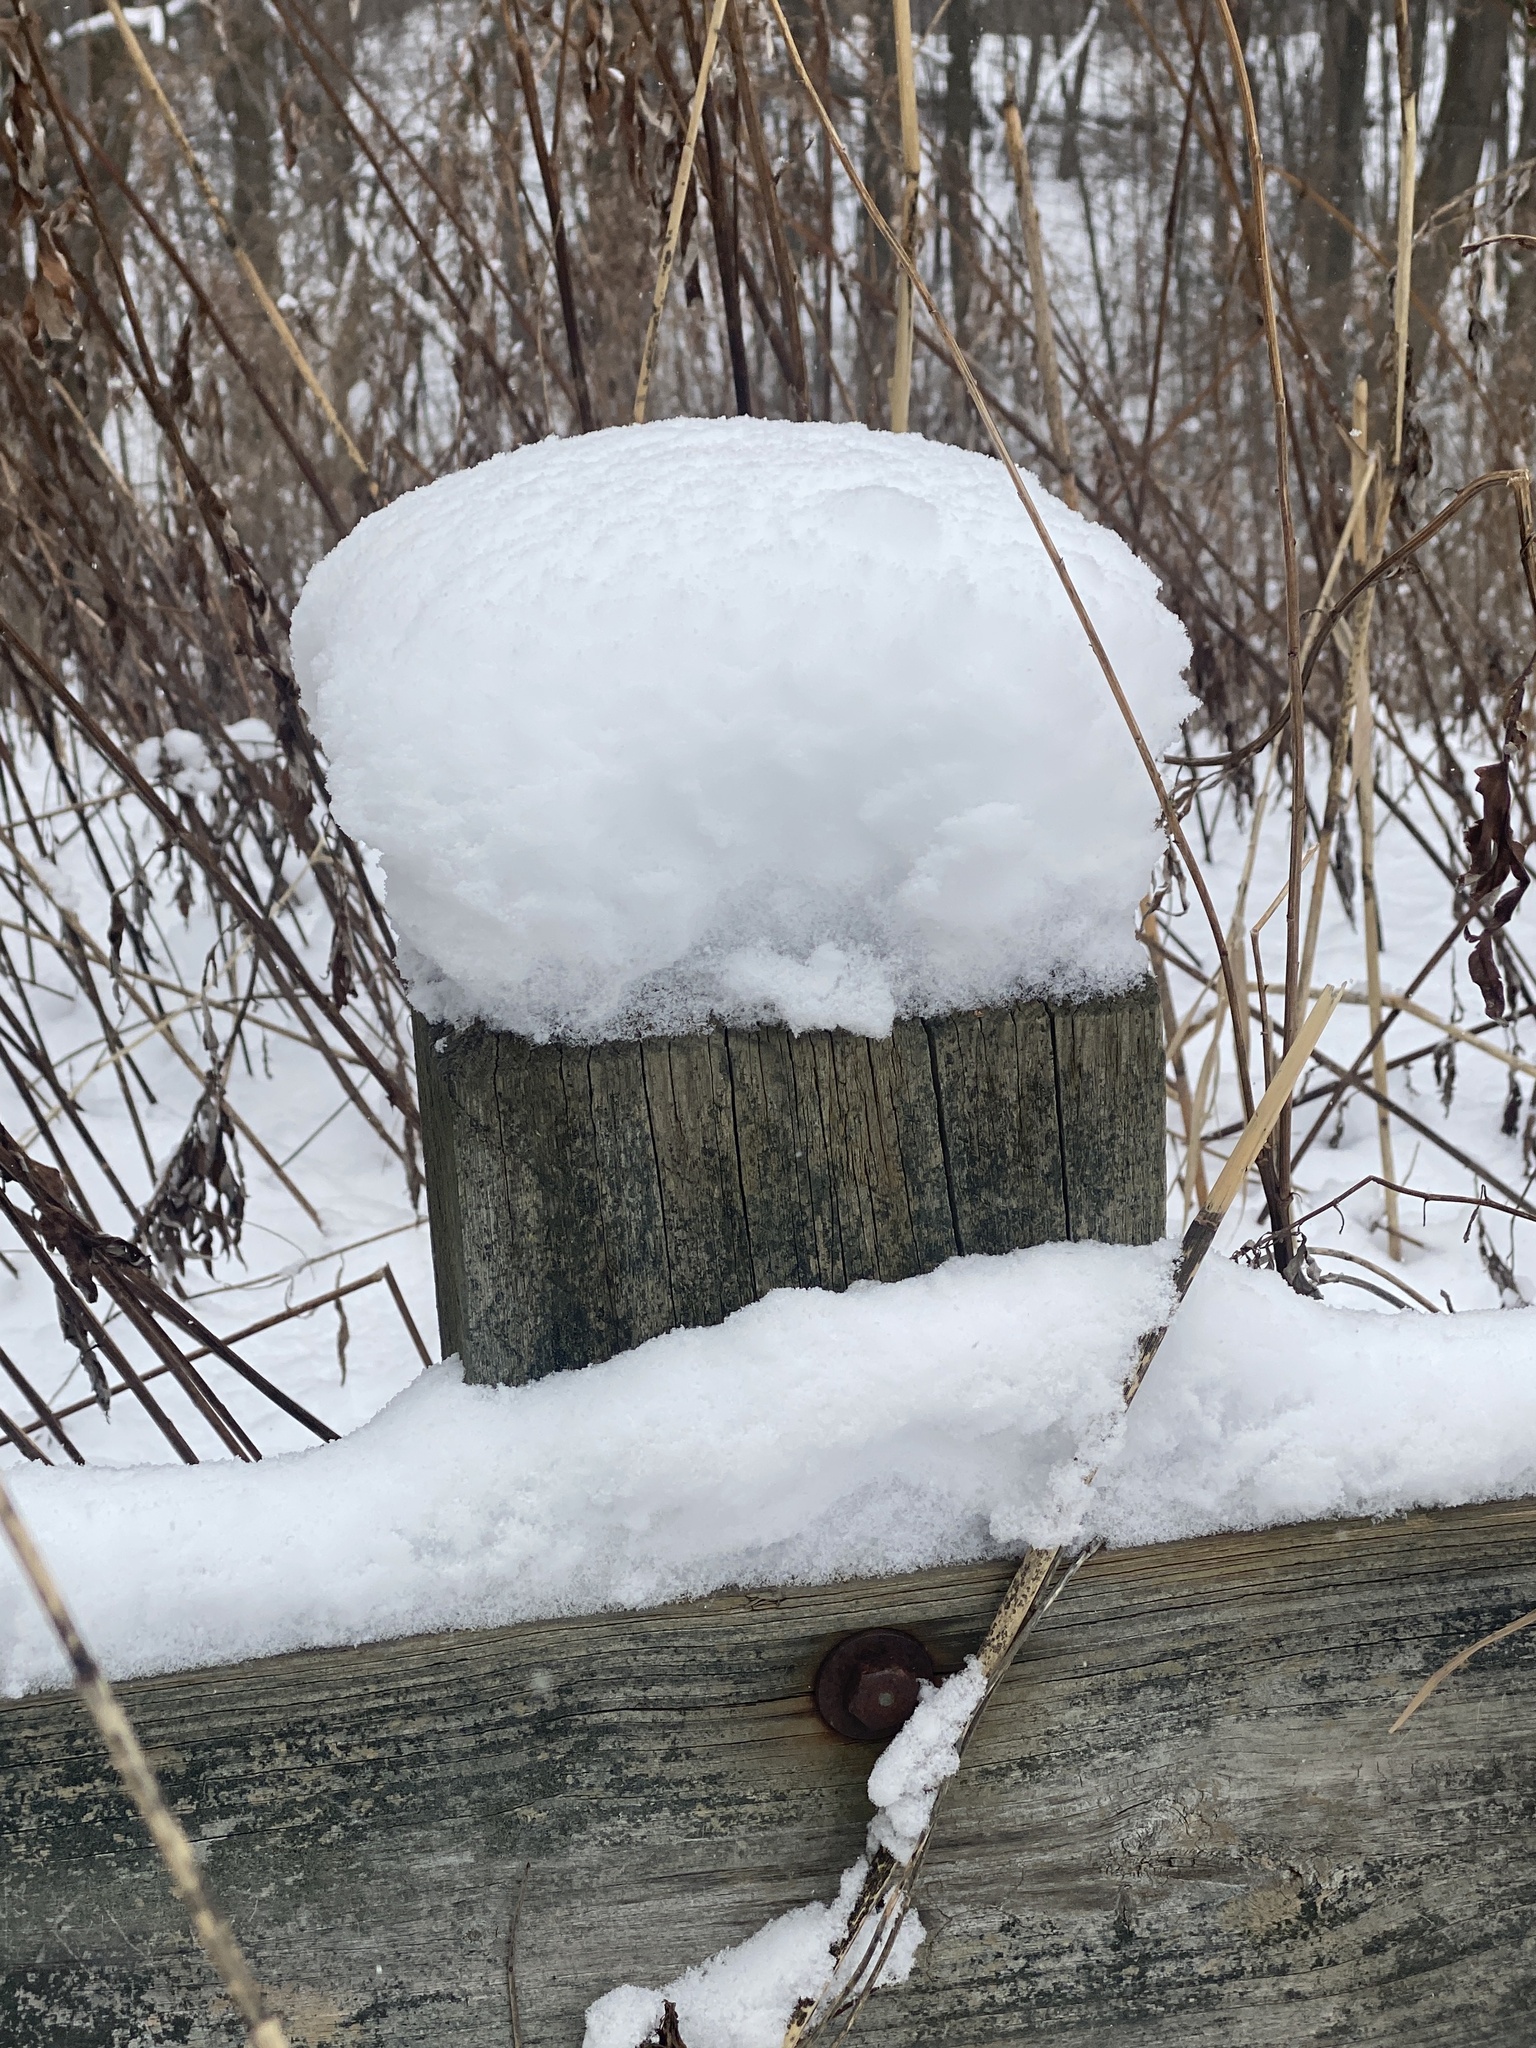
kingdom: Plantae
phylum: Tracheophyta
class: Magnoliopsida
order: Sapindales
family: Anacardiaceae
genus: Rhus
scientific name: Rhus typhina
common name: Staghorn sumac
